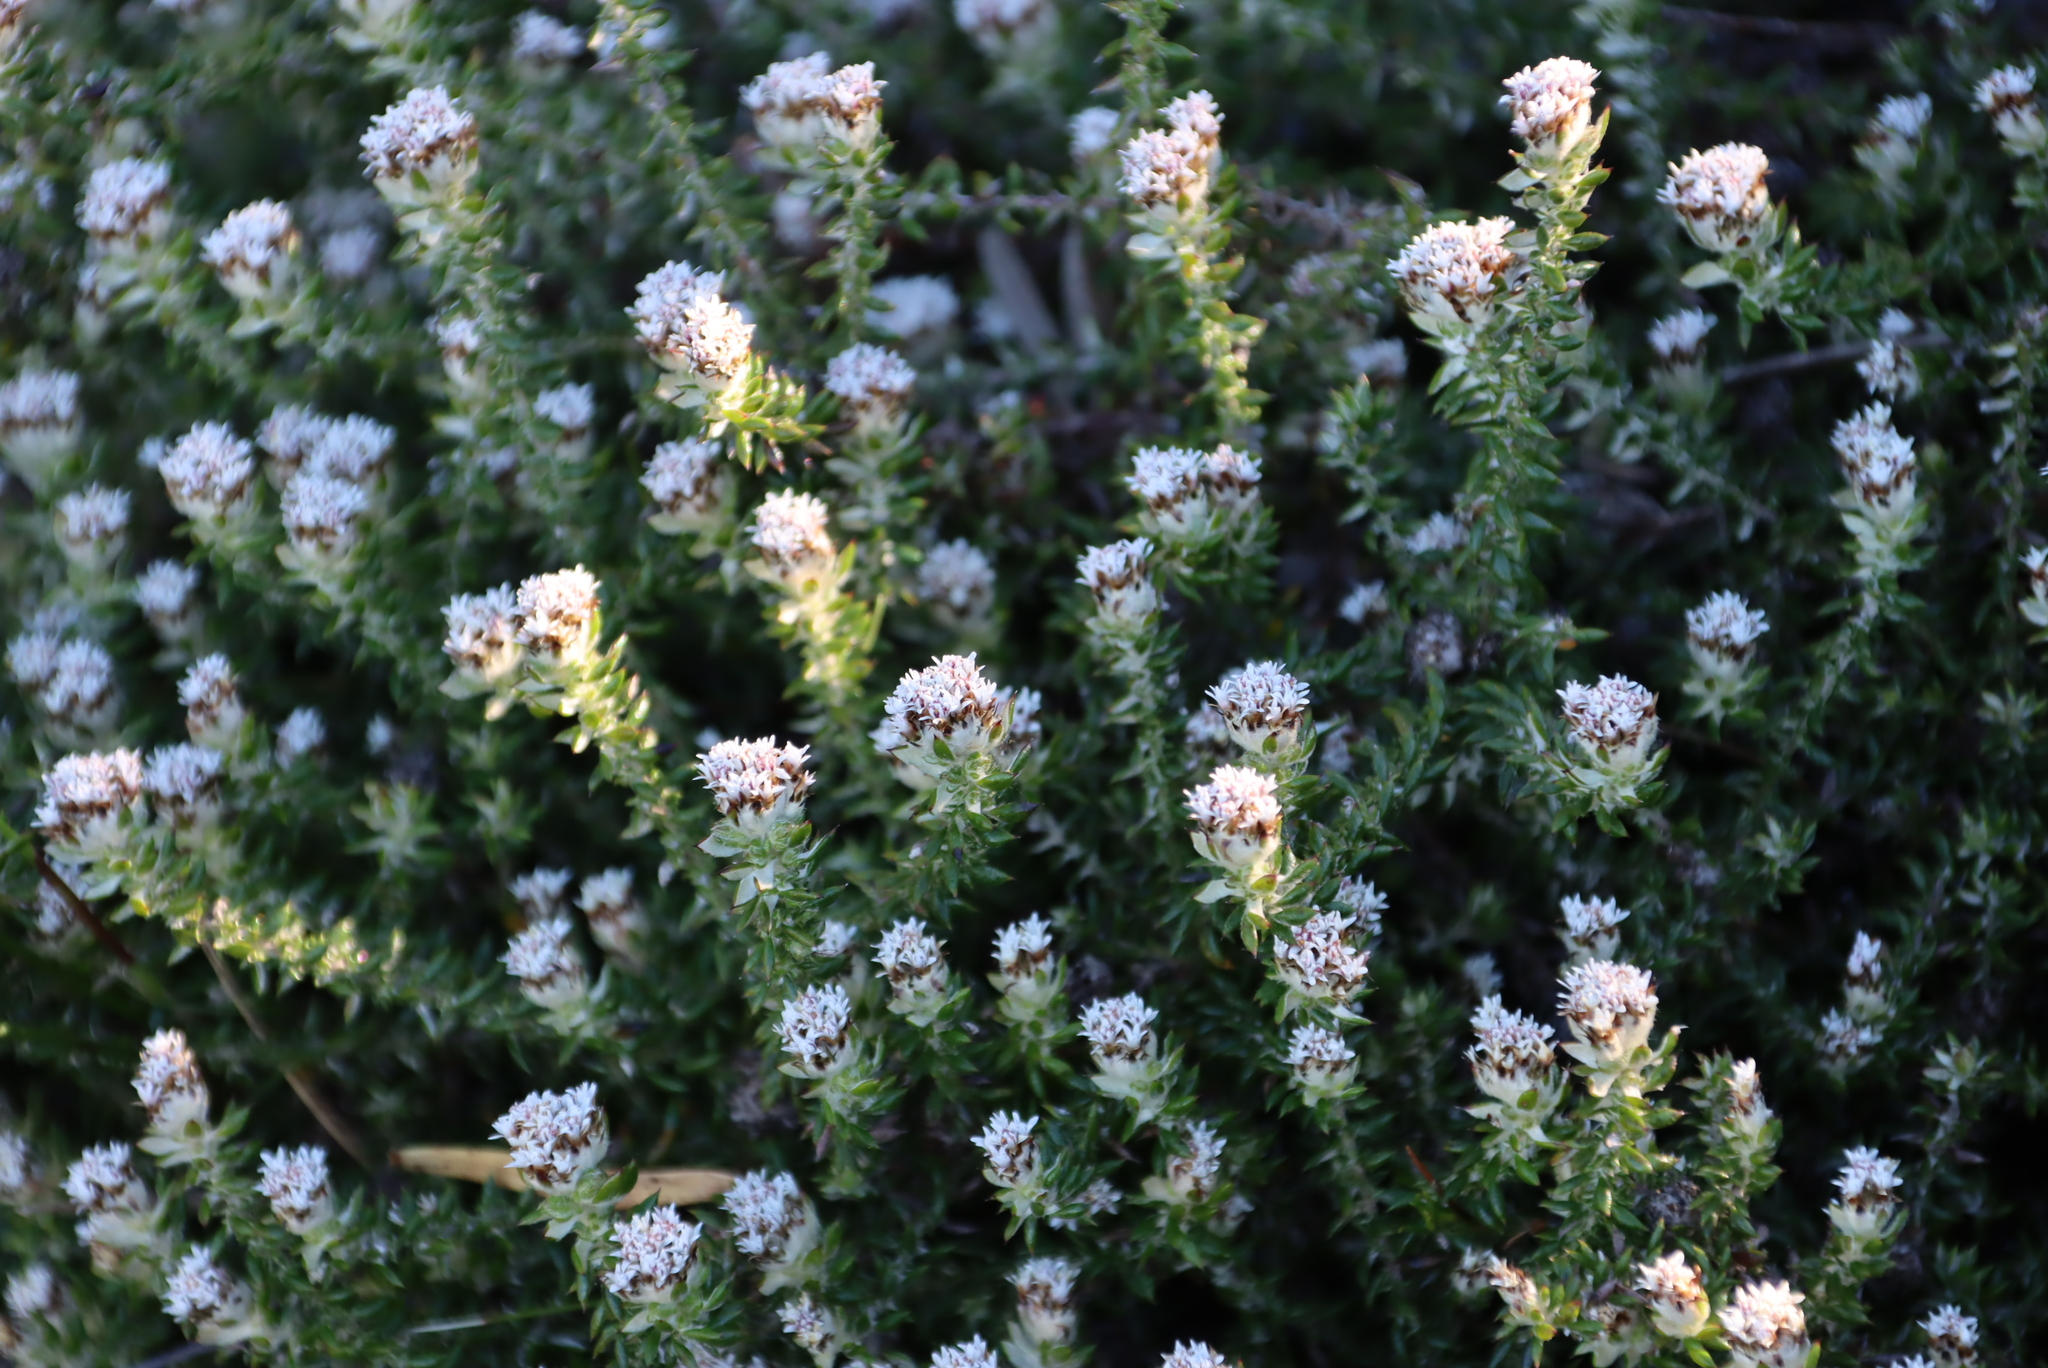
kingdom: Plantae
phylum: Tracheophyta
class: Magnoliopsida
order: Asterales
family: Asteraceae
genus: Metalasia
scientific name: Metalasia divergens
